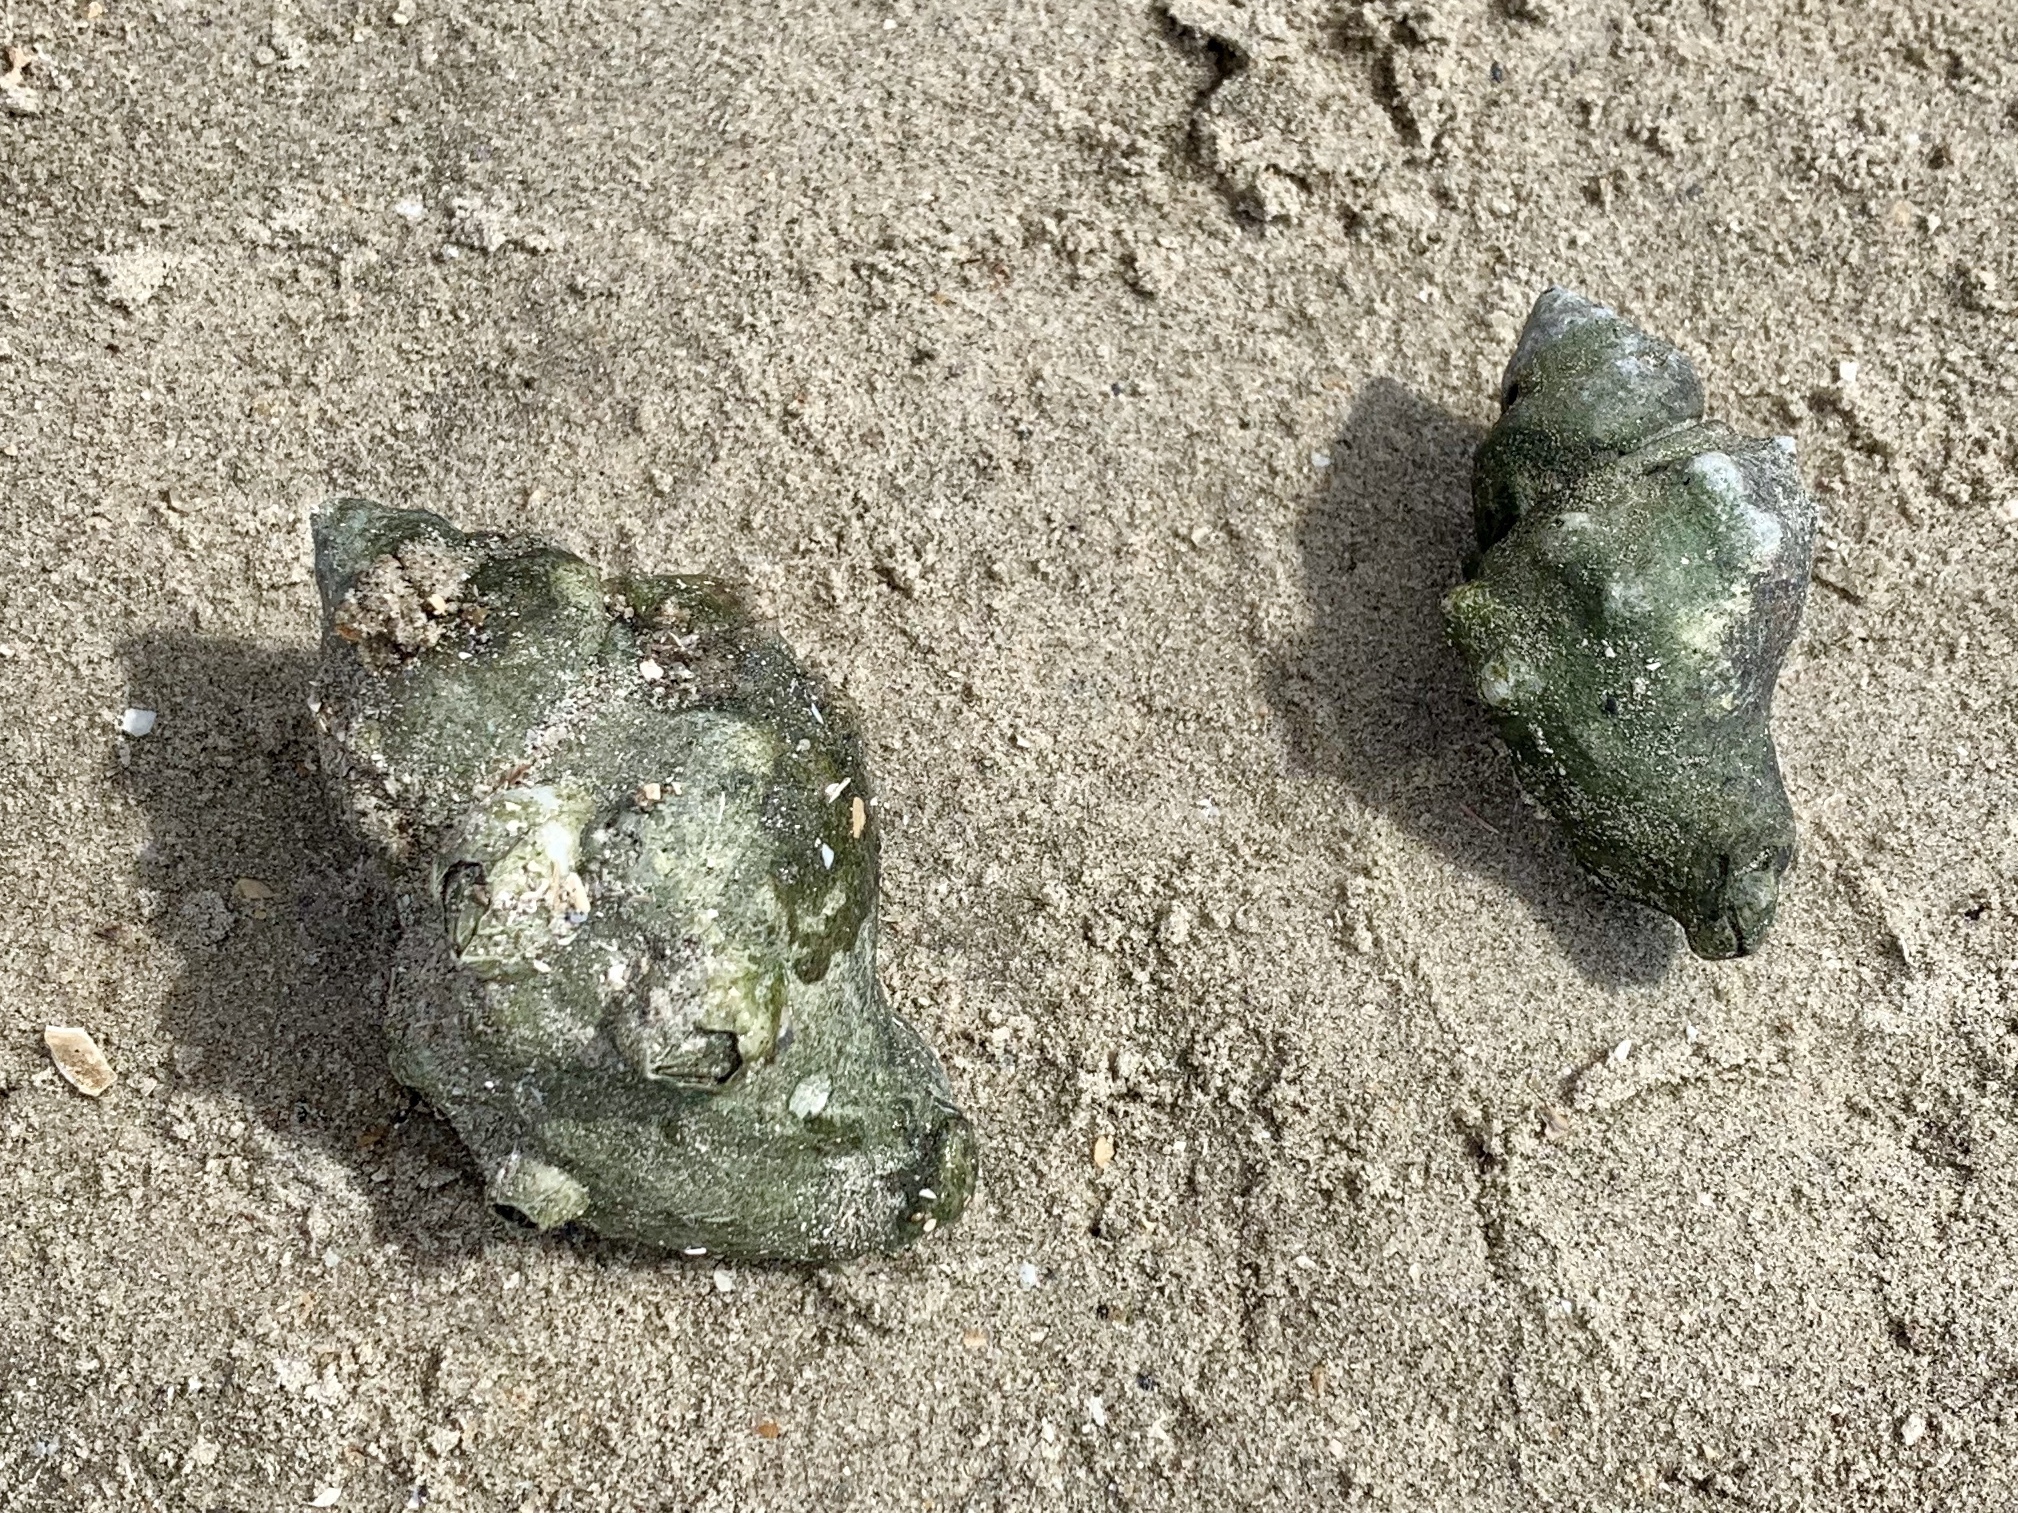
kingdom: Animalia
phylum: Arthropoda
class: Malacostraca
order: Decapoda
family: Diogenidae
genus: Clibanarius
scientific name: Clibanarius vittatus
